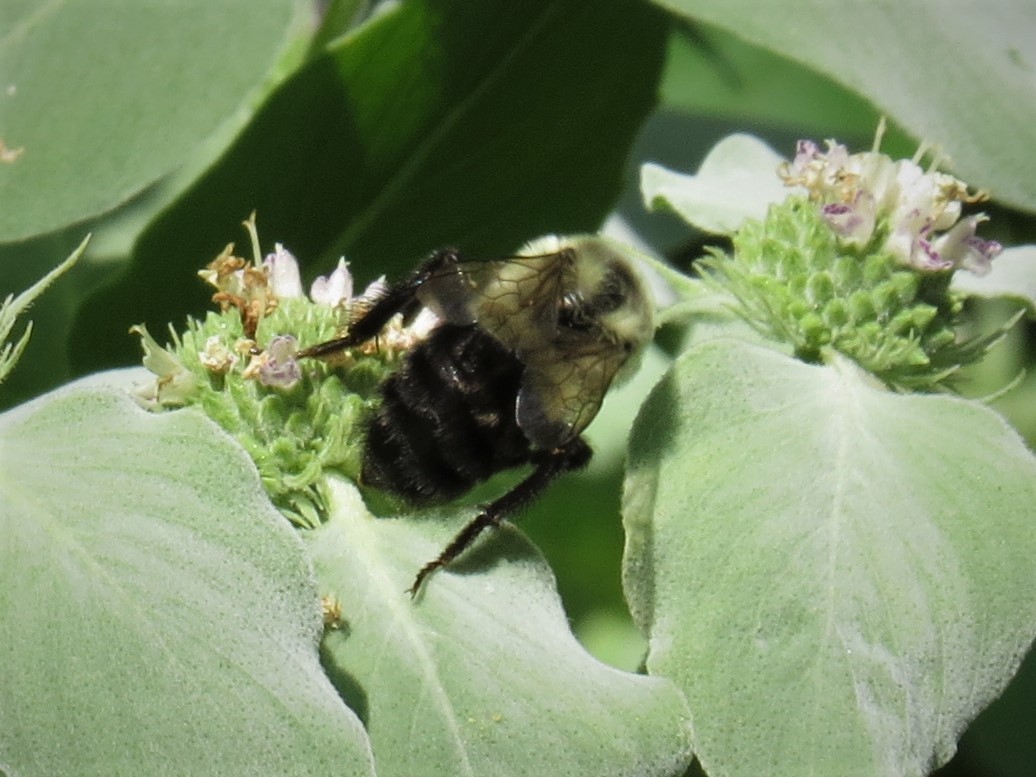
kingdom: Animalia
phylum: Arthropoda
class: Insecta
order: Hymenoptera
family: Apidae
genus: Bombus
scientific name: Bombus impatiens
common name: Common eastern bumble bee
